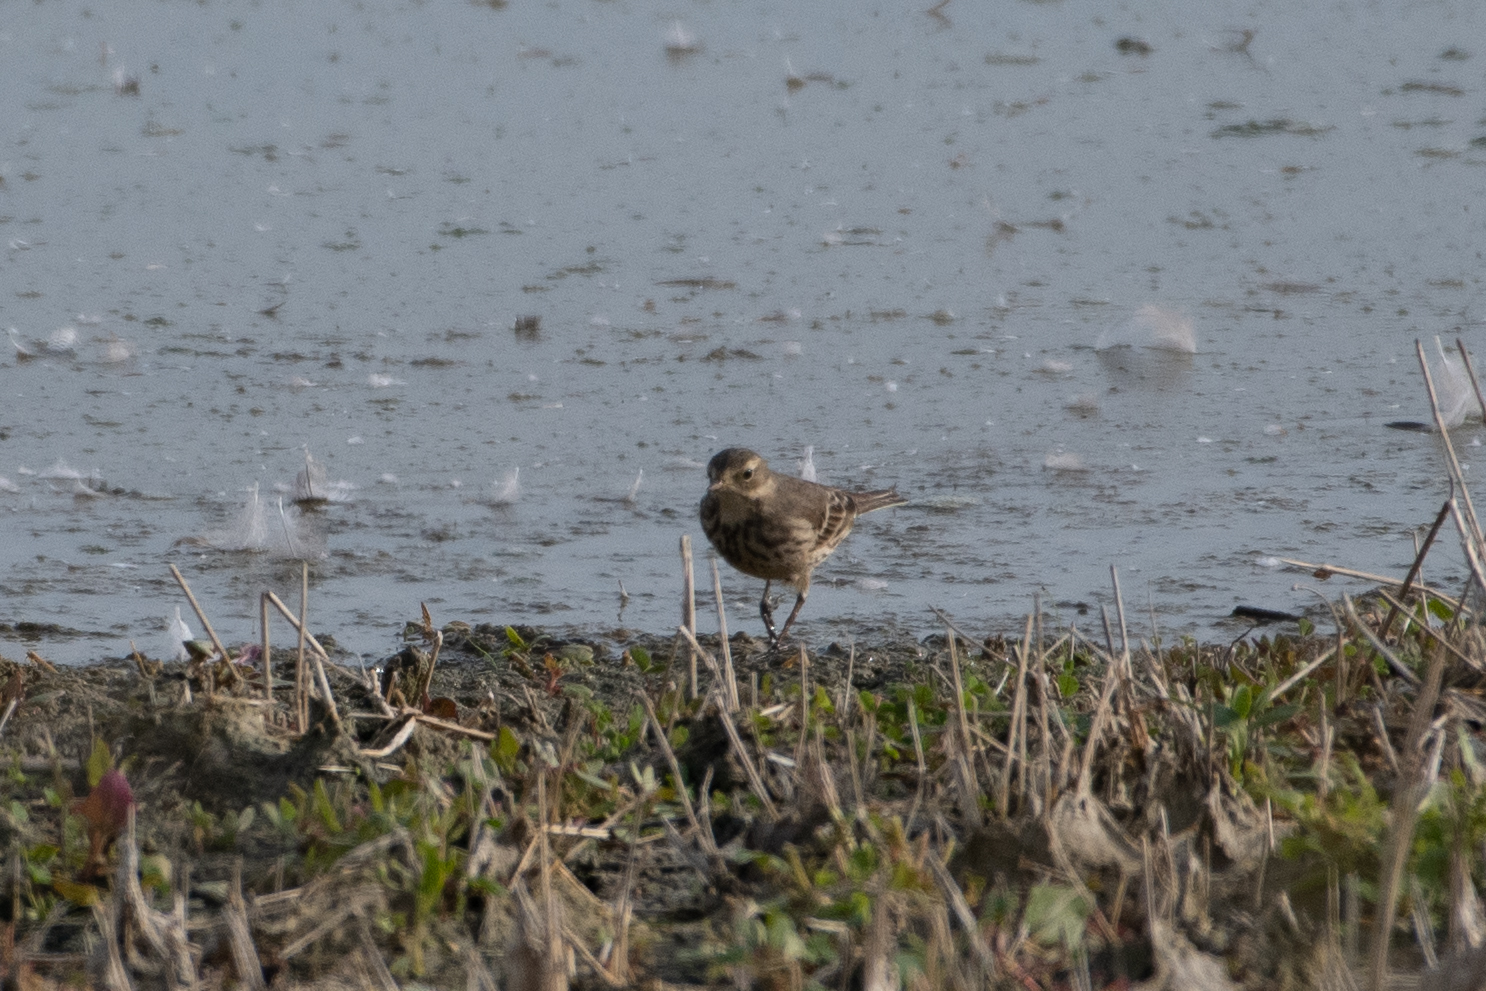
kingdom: Animalia
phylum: Chordata
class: Aves
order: Passeriformes
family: Motacillidae
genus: Anthus
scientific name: Anthus rubescens
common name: Buff-bellied pipit
